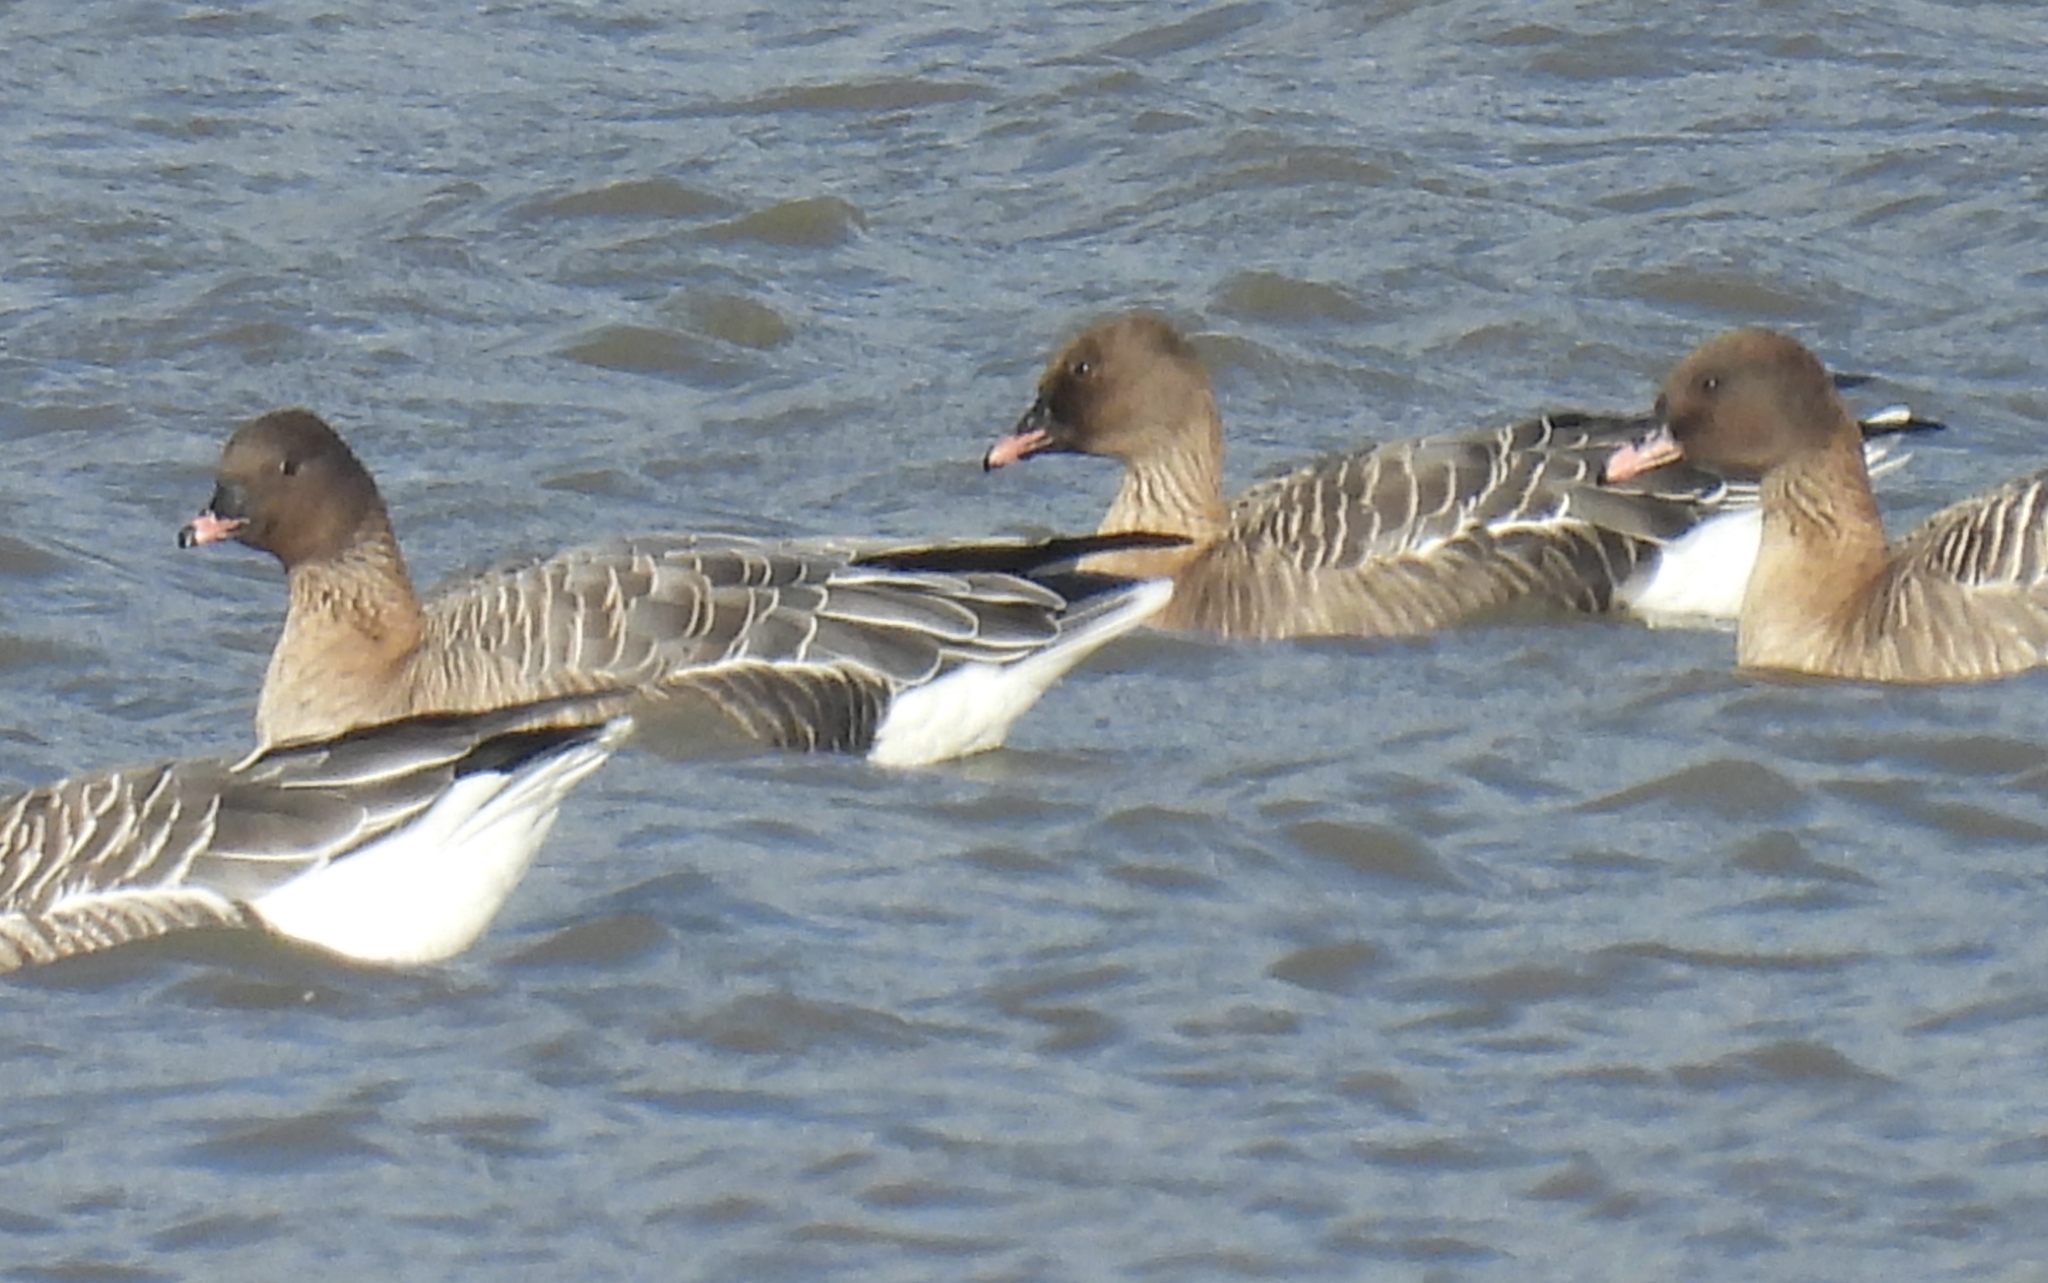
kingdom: Animalia
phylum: Chordata
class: Aves
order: Anseriformes
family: Anatidae
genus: Anser
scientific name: Anser brachyrhynchus
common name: Pink-footed goose
